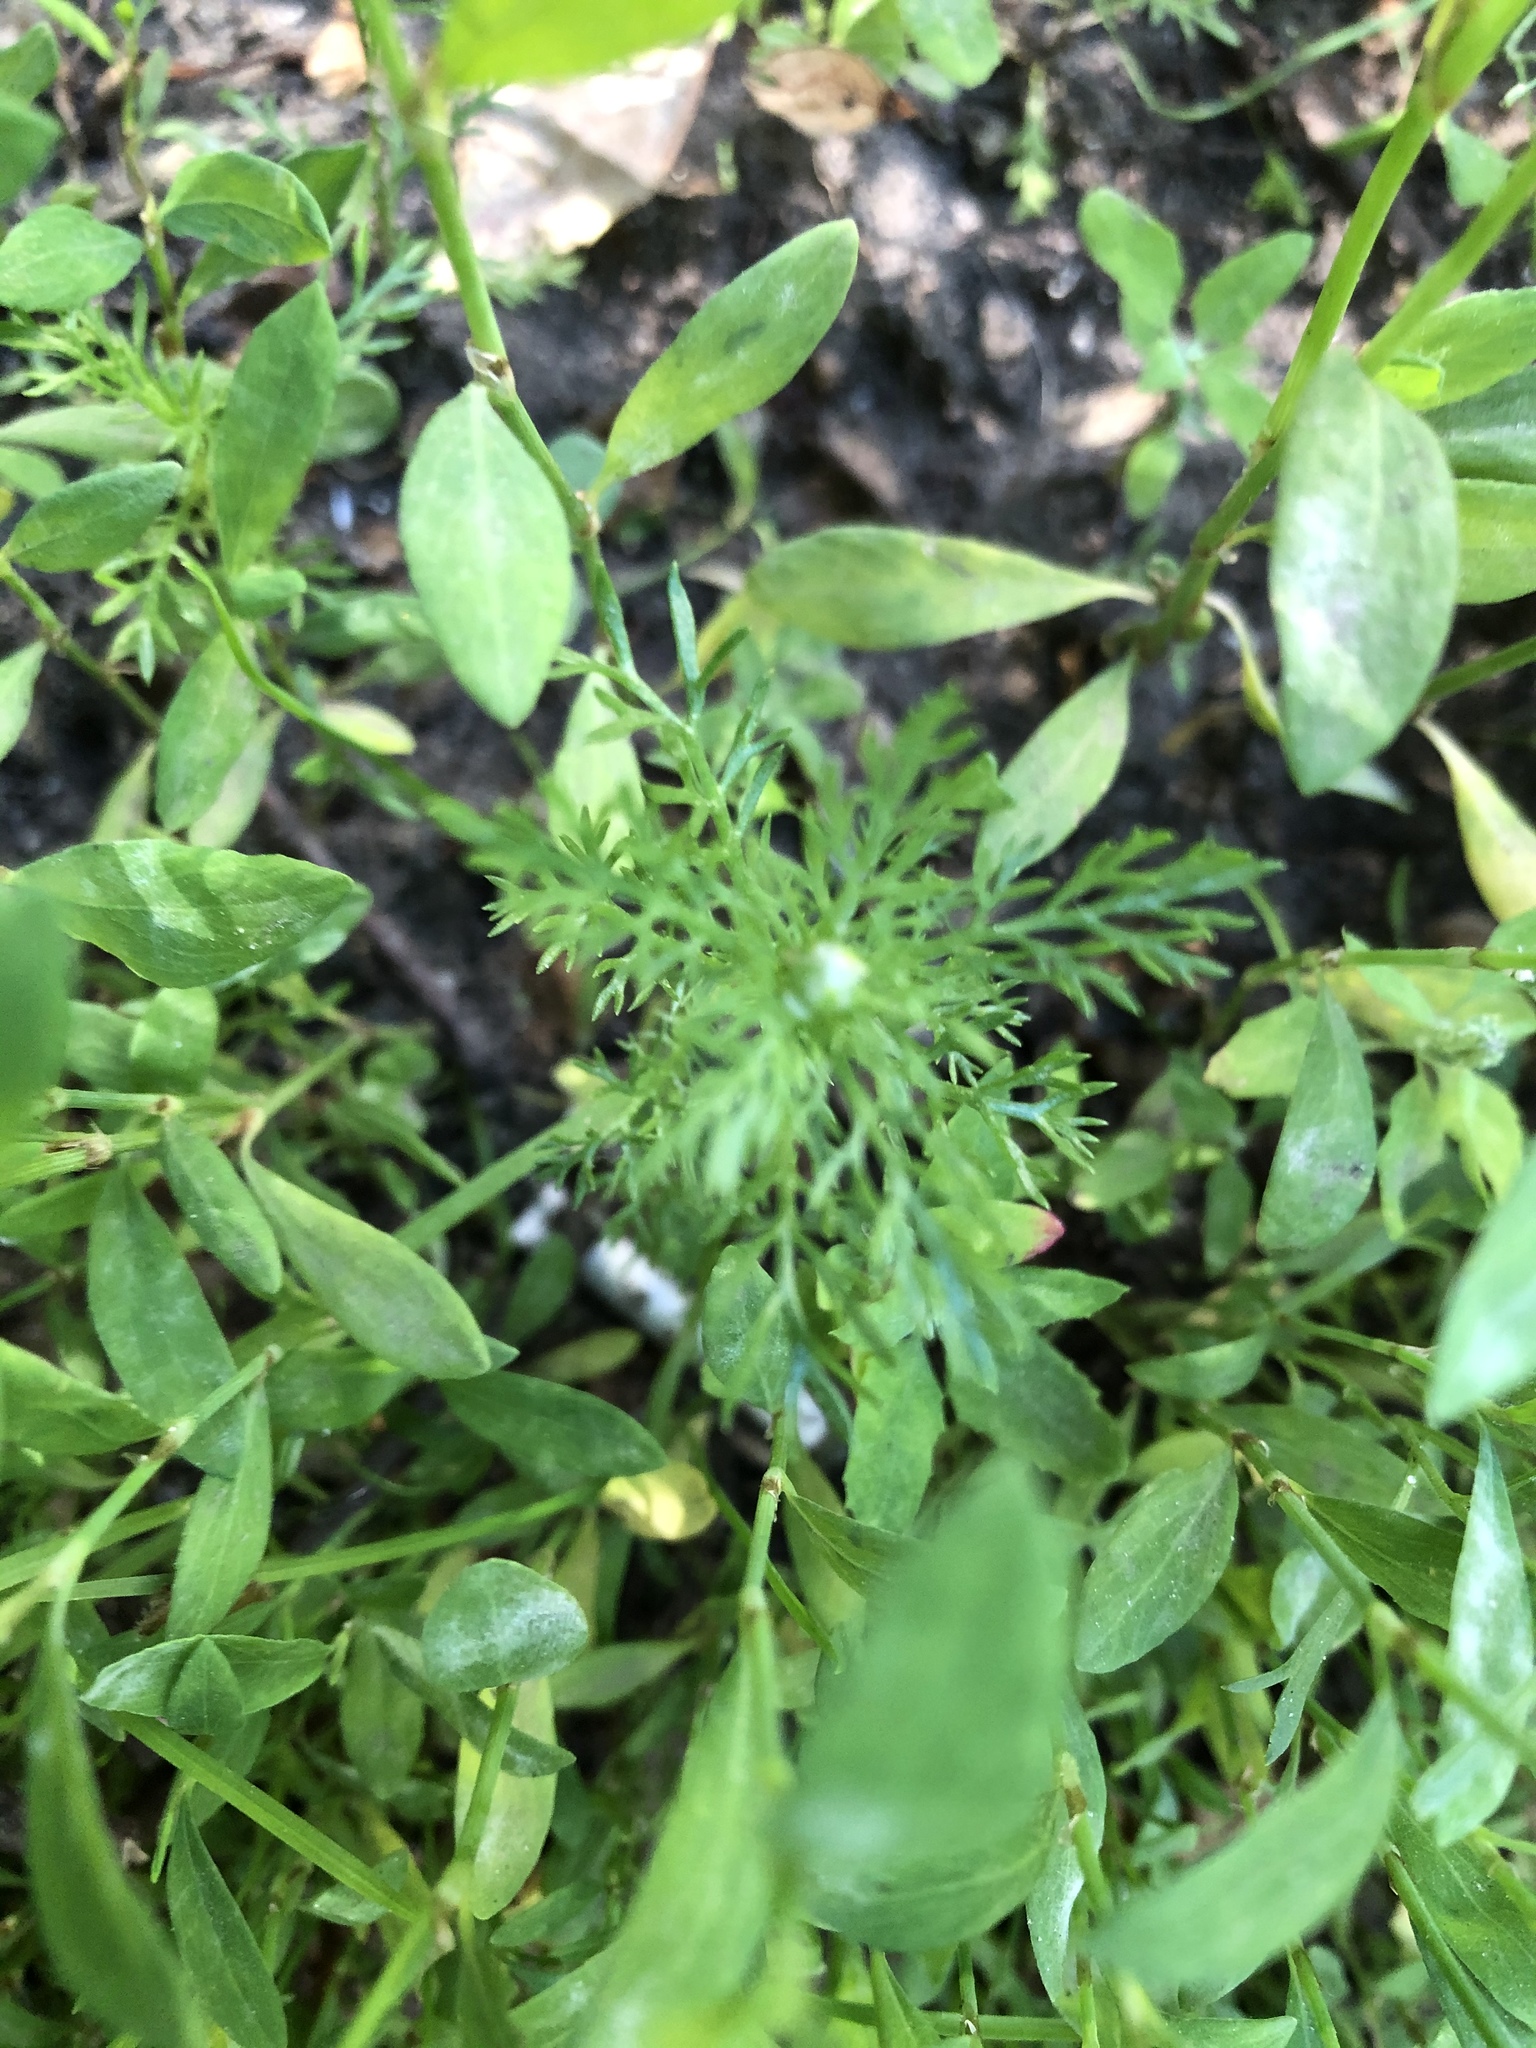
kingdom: Plantae
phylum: Tracheophyta
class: Magnoliopsida
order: Asterales
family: Asteraceae
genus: Matricaria
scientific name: Matricaria discoidea
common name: Disc mayweed
